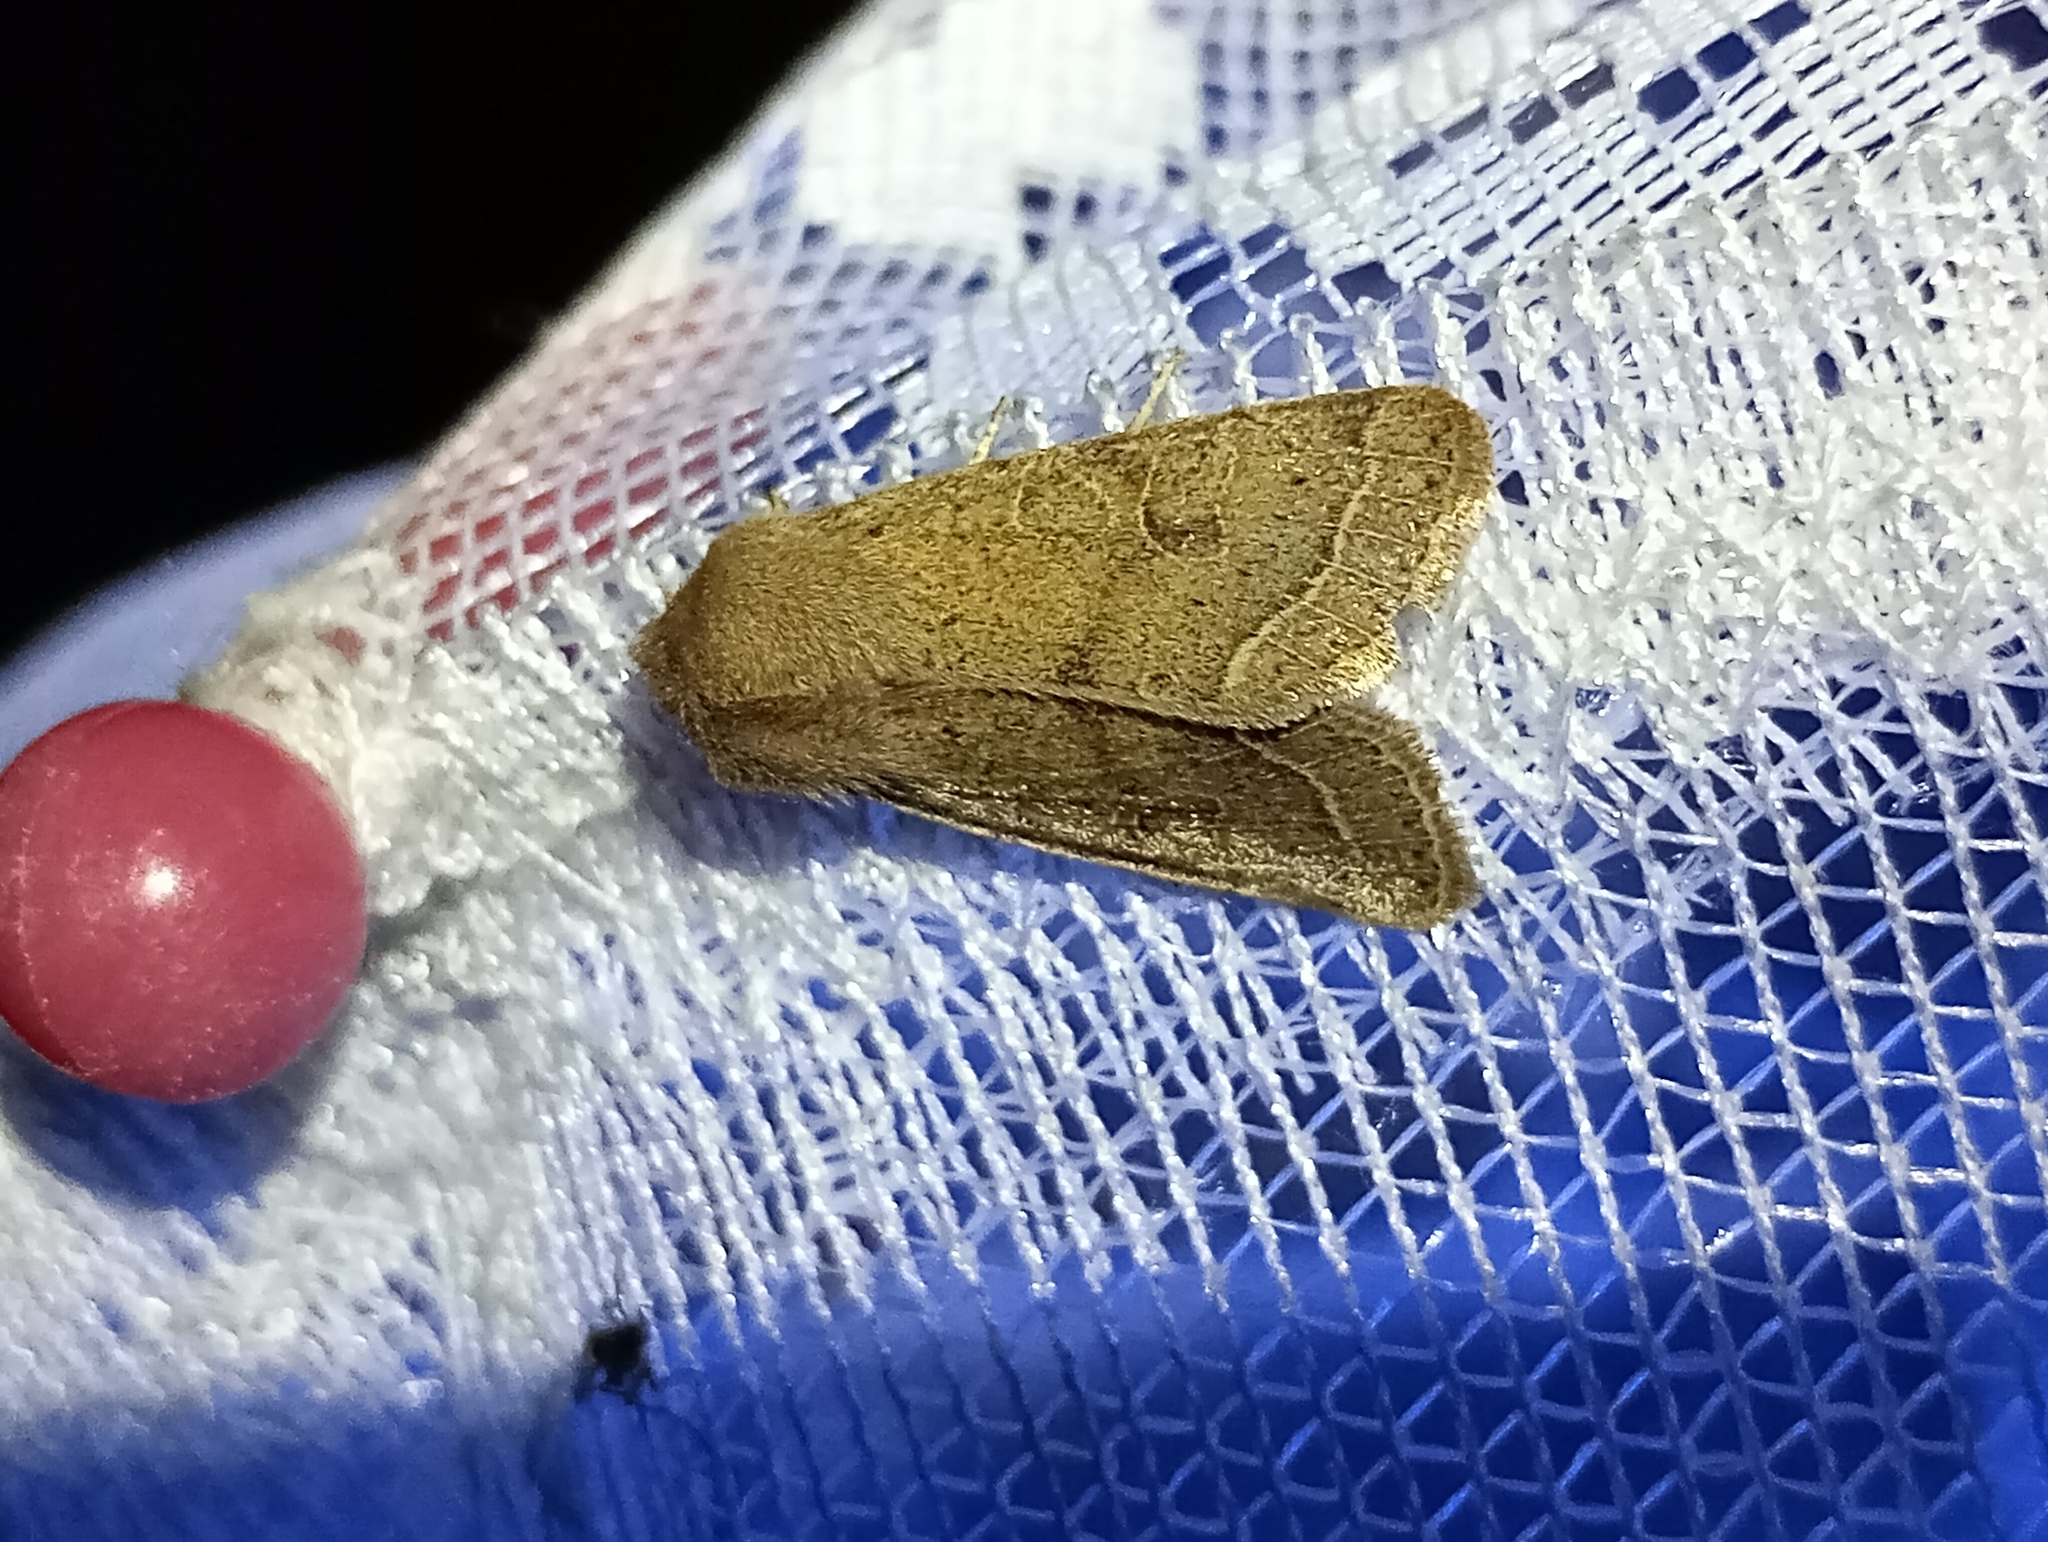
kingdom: Animalia
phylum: Arthropoda
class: Insecta
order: Lepidoptera
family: Noctuidae
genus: Orthosia
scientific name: Orthosia cerasi
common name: Common quaker
